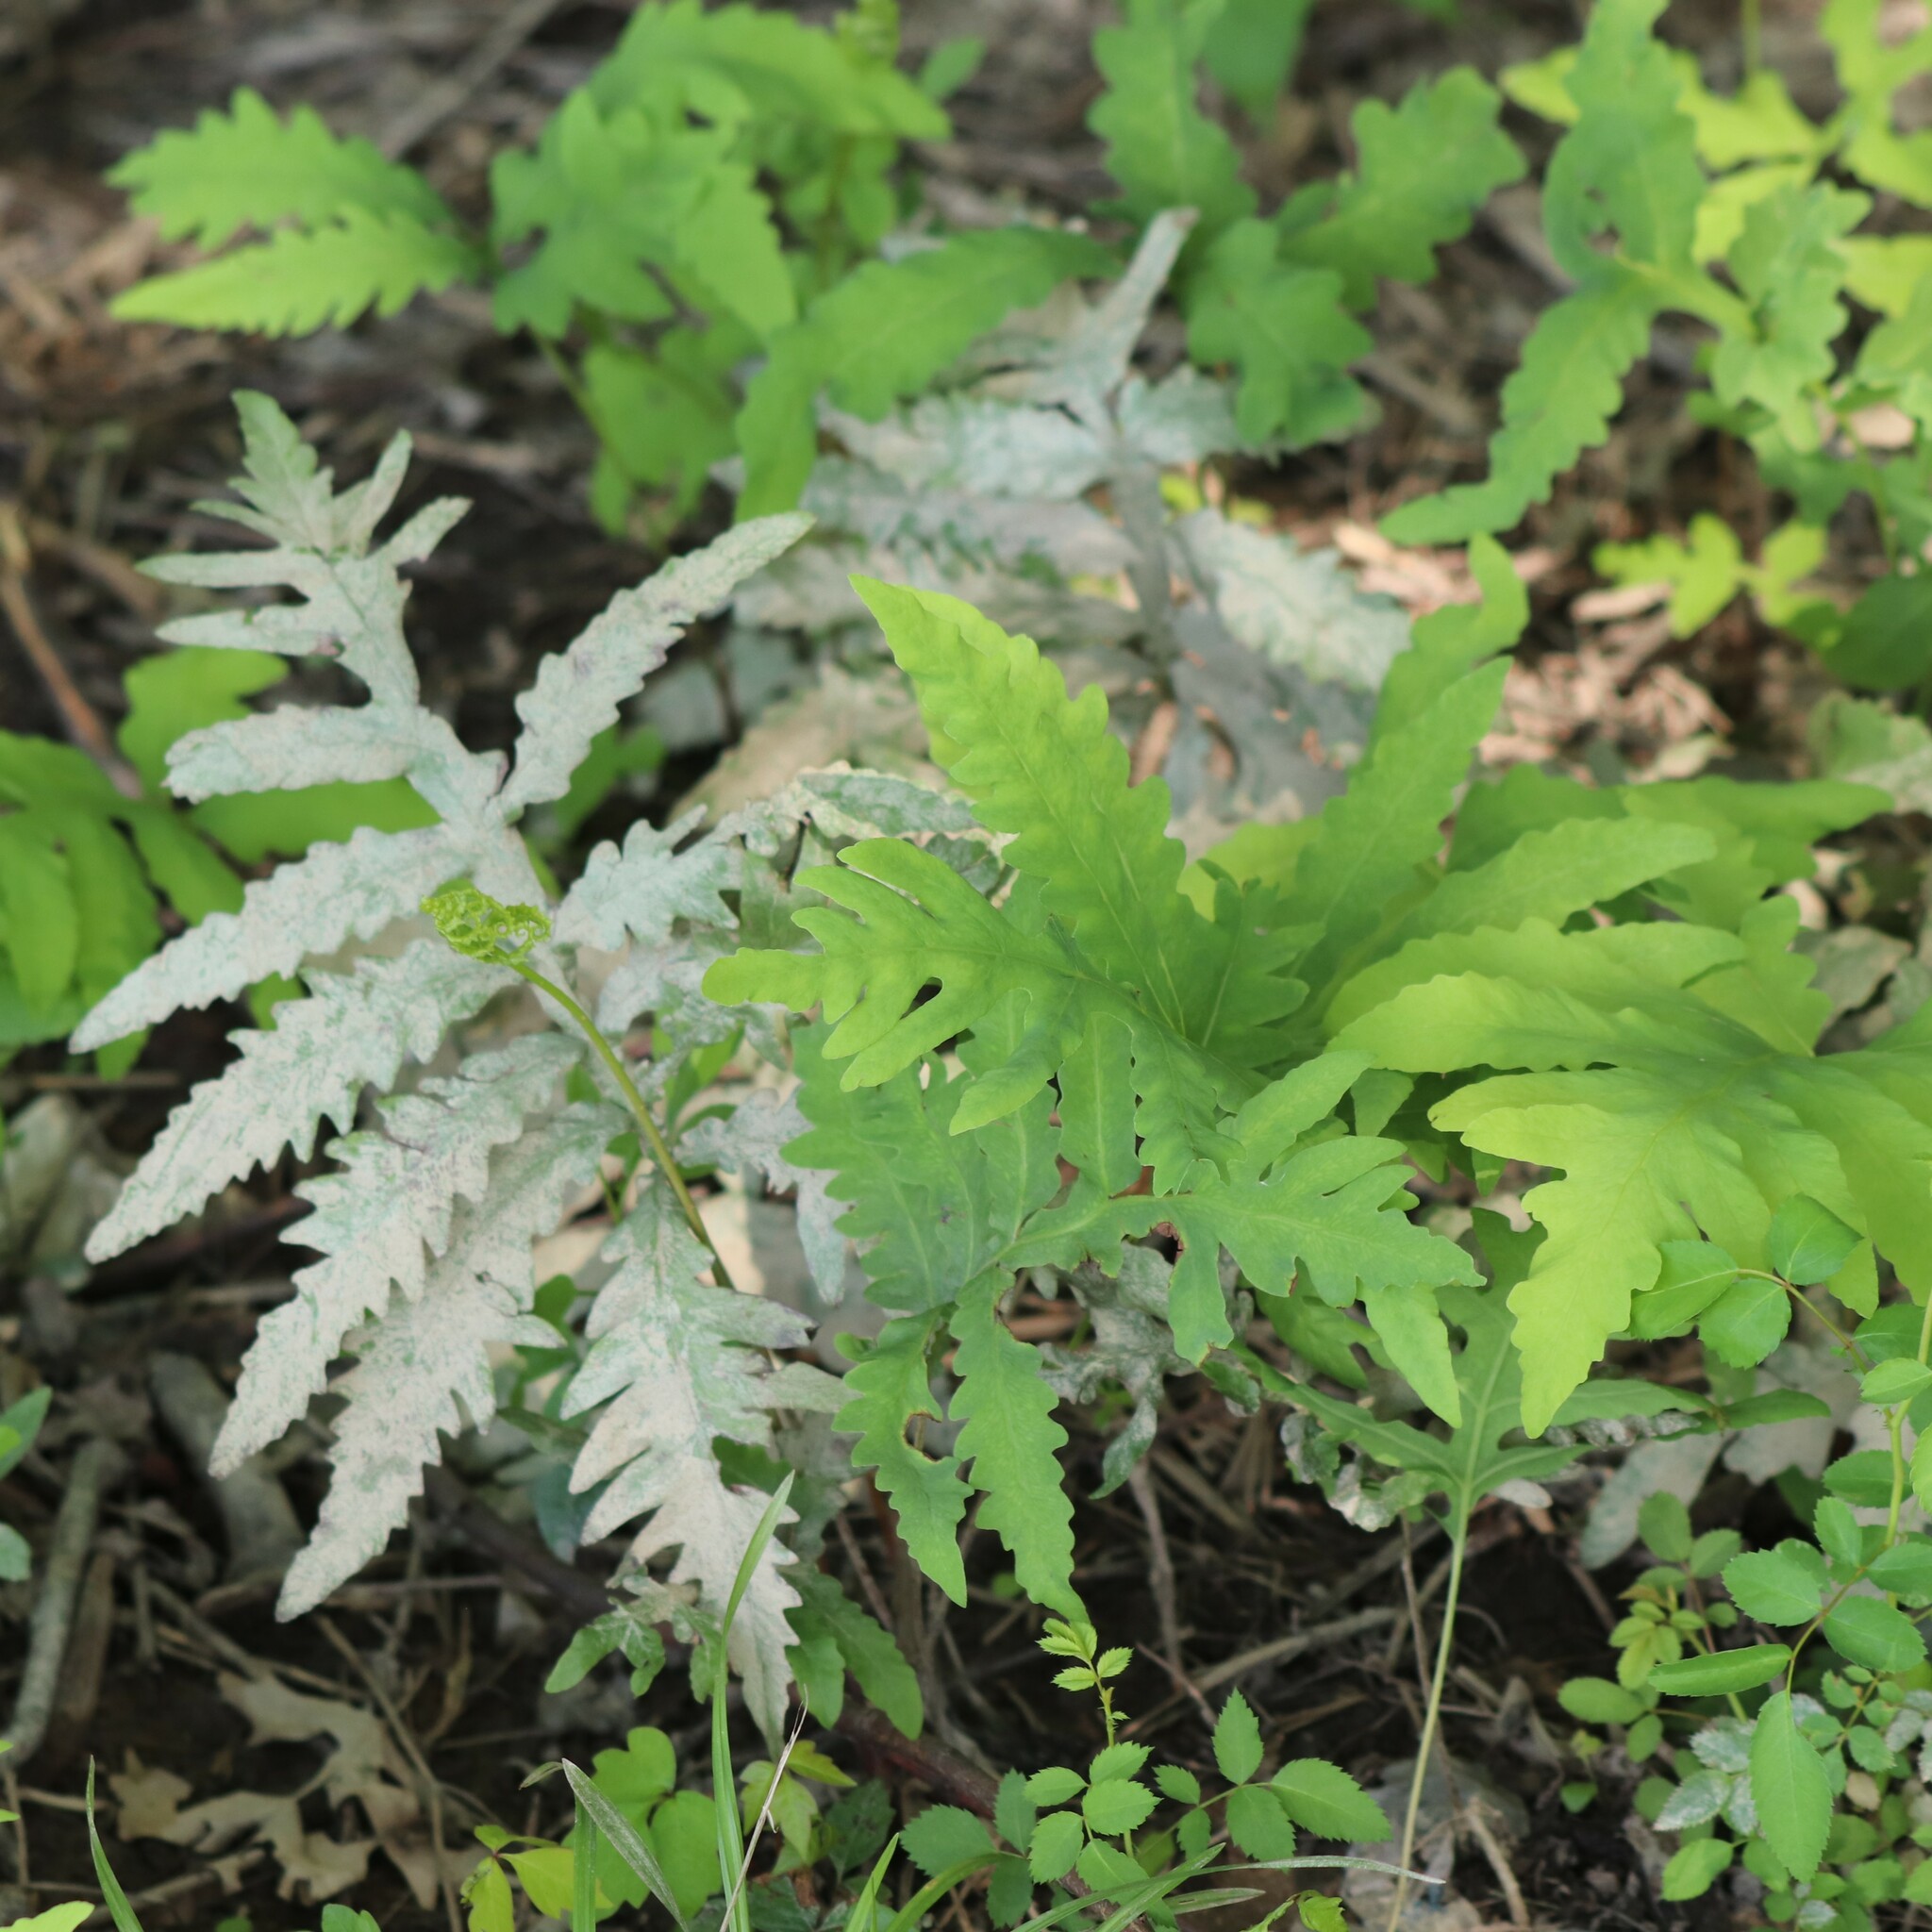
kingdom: Plantae
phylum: Tracheophyta
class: Polypodiopsida
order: Polypodiales
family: Onocleaceae
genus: Onoclea
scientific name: Onoclea sensibilis
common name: Sensitive fern
